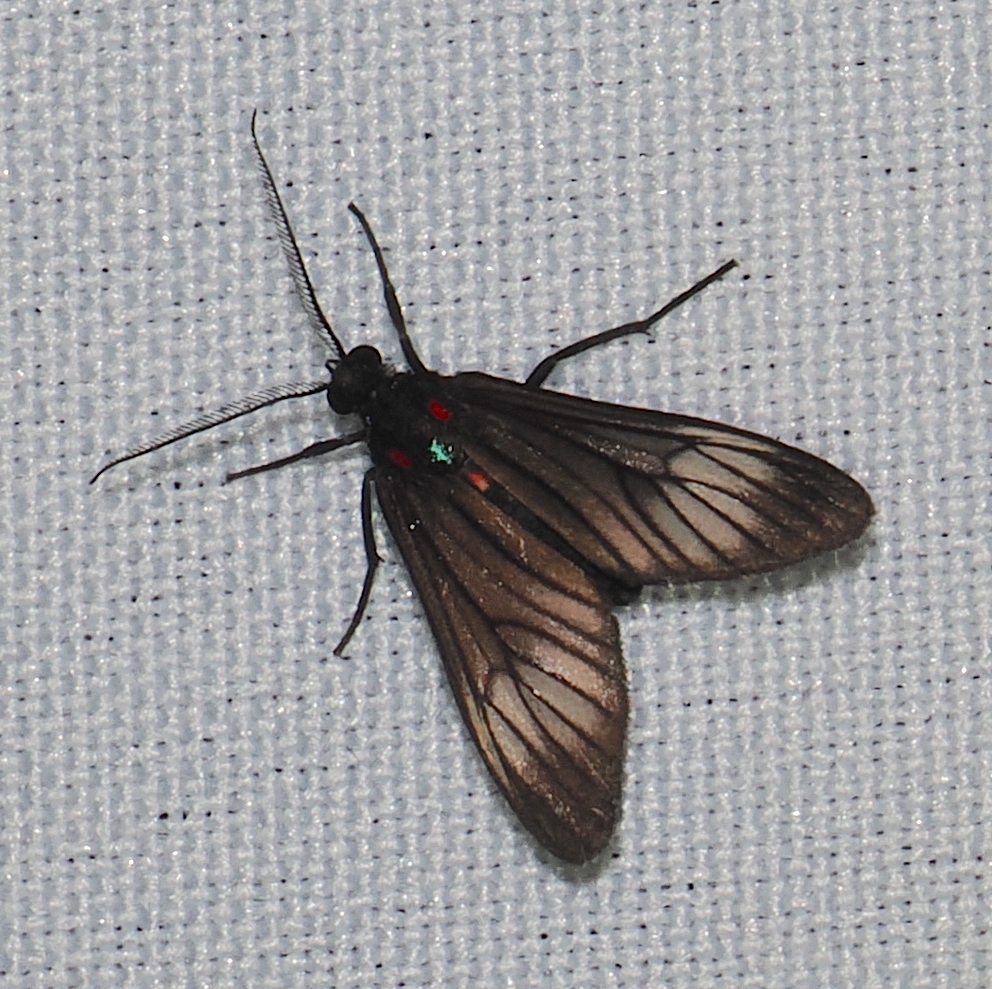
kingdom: Animalia
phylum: Arthropoda
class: Insecta
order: Lepidoptera
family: Erebidae
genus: Hyperphara
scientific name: Hyperphara clusia
